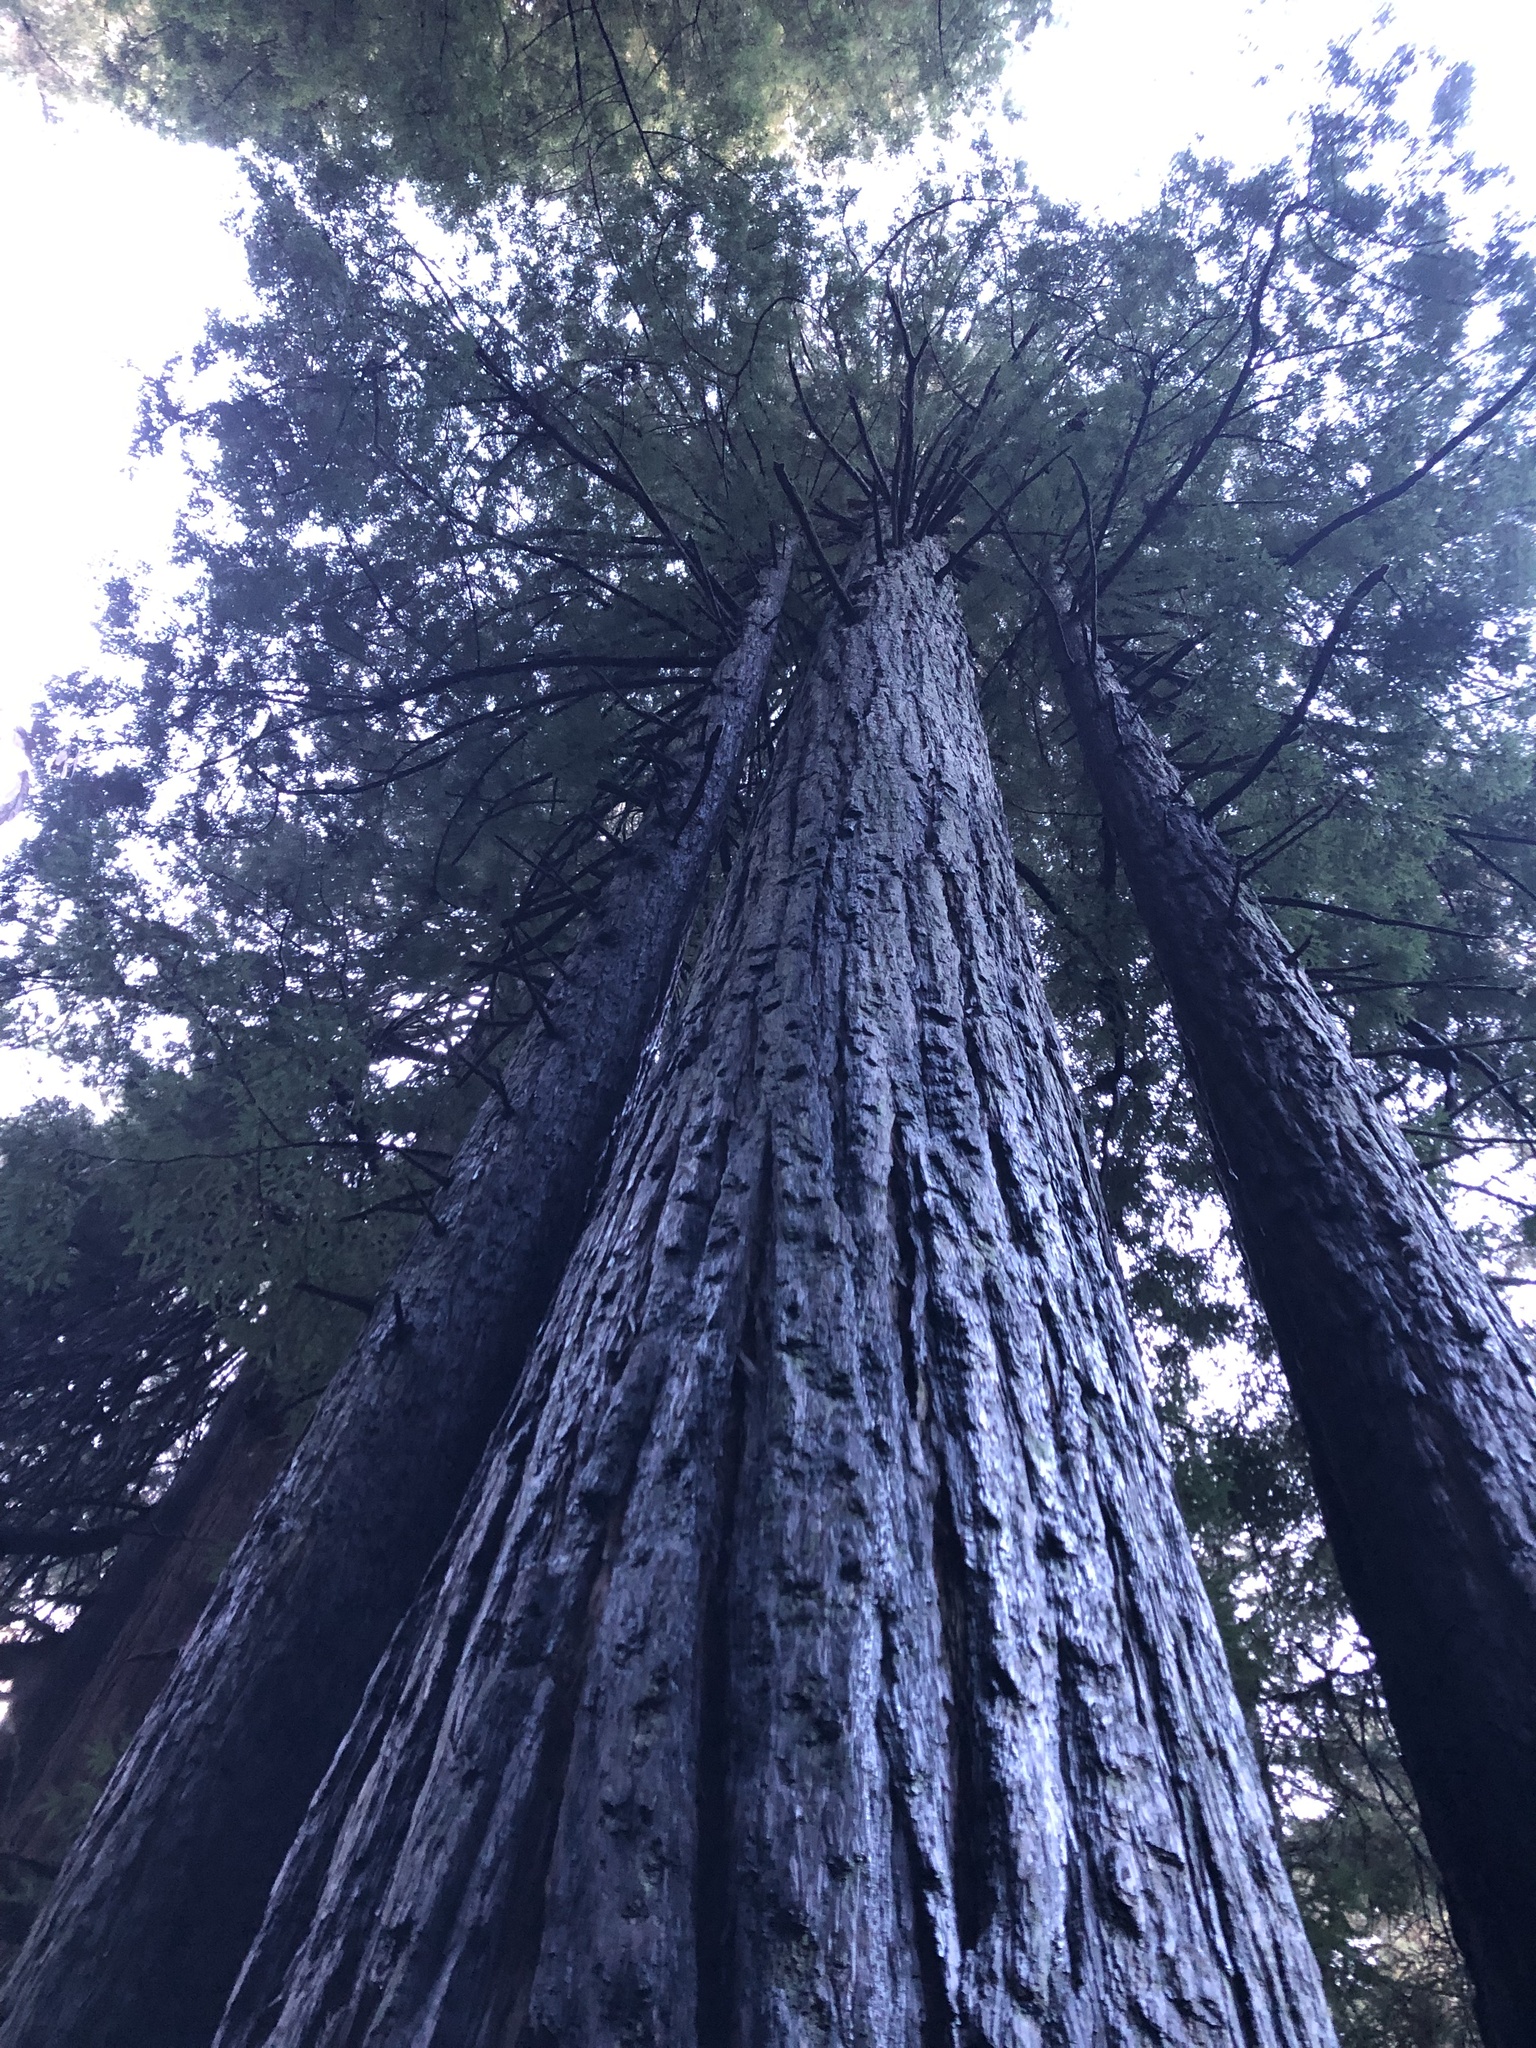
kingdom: Plantae
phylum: Tracheophyta
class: Pinopsida
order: Pinales
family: Cupressaceae
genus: Sequoia
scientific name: Sequoia sempervirens
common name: Coast redwood
